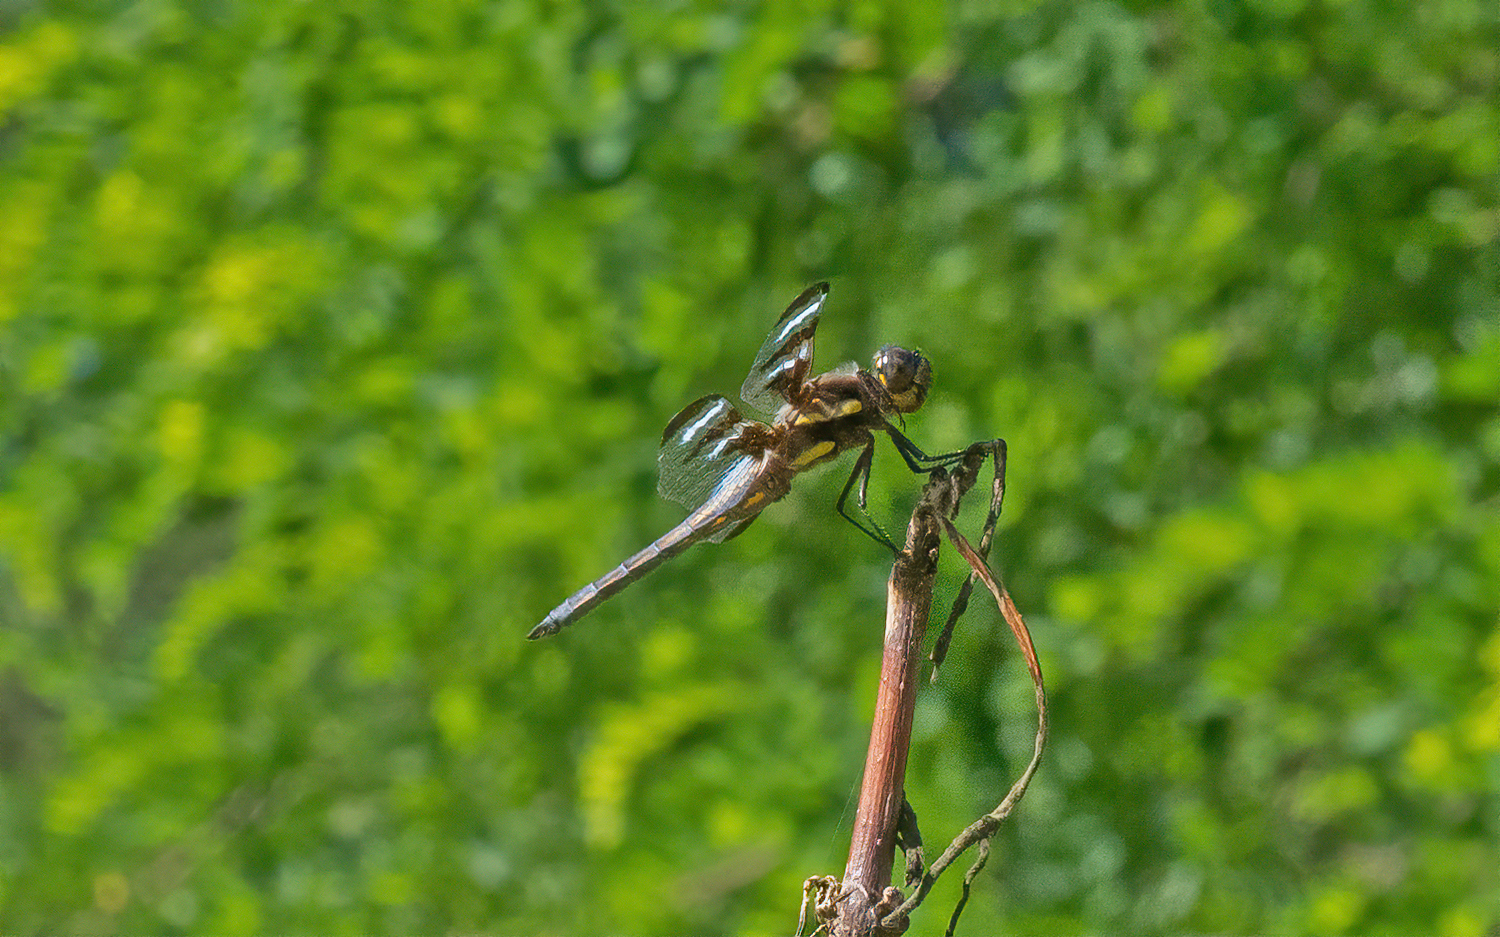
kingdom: Animalia
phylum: Arthropoda
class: Insecta
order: Odonata
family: Libellulidae
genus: Libellula
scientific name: Libellula pulchella
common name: Twelve-spotted skimmer
